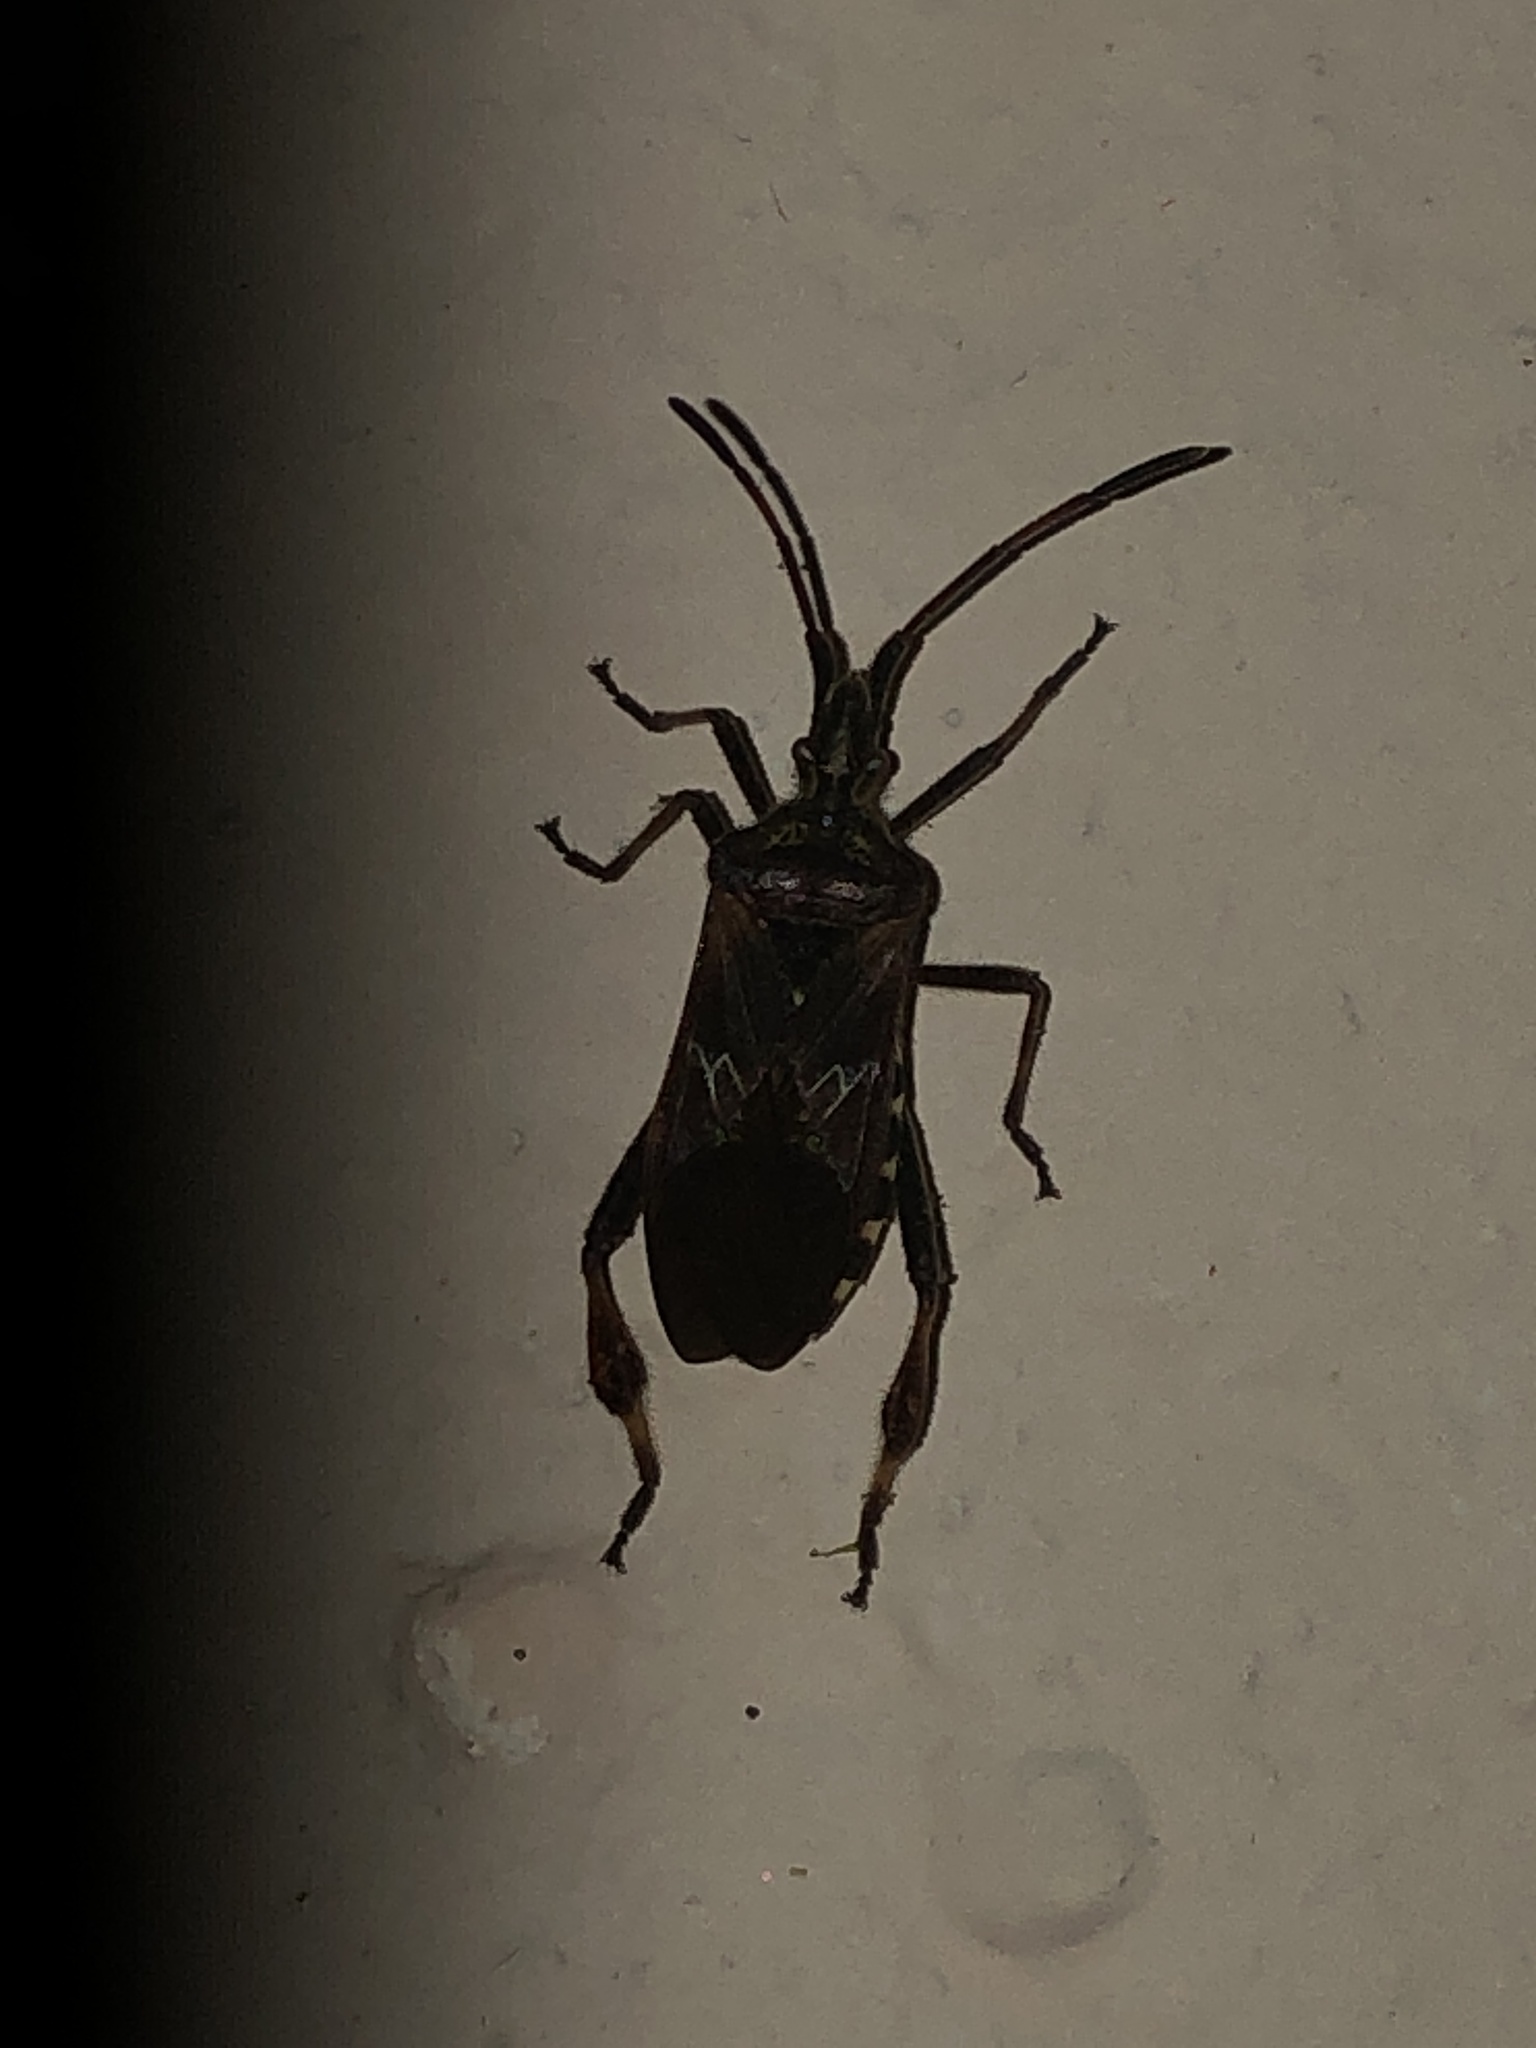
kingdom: Animalia
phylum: Arthropoda
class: Insecta
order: Hemiptera
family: Coreidae
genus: Leptoglossus
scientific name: Leptoglossus occidentalis
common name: Western conifer-seed bug
